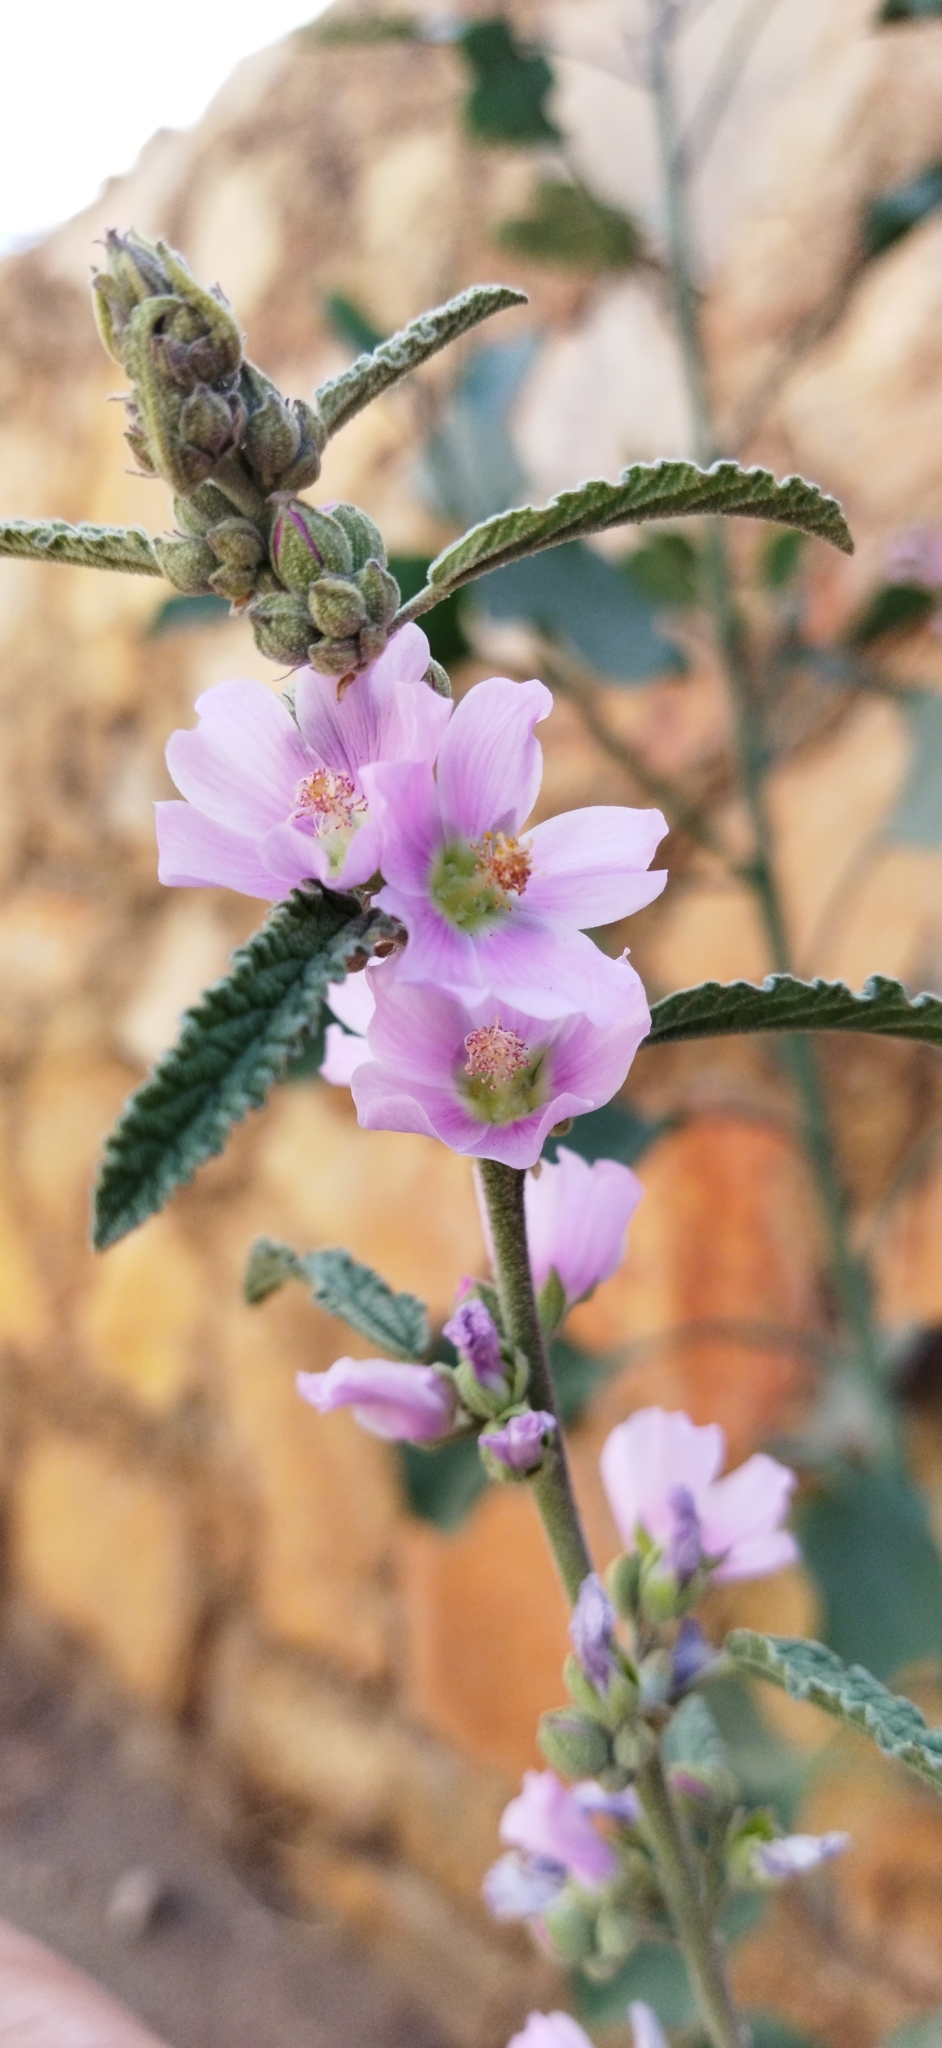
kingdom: Plantae
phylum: Tracheophyta
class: Magnoliopsida
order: Malvales
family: Malvaceae
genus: Sphaeralcea
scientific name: Sphaeralcea angustifolia
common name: Copper globe-mallow
